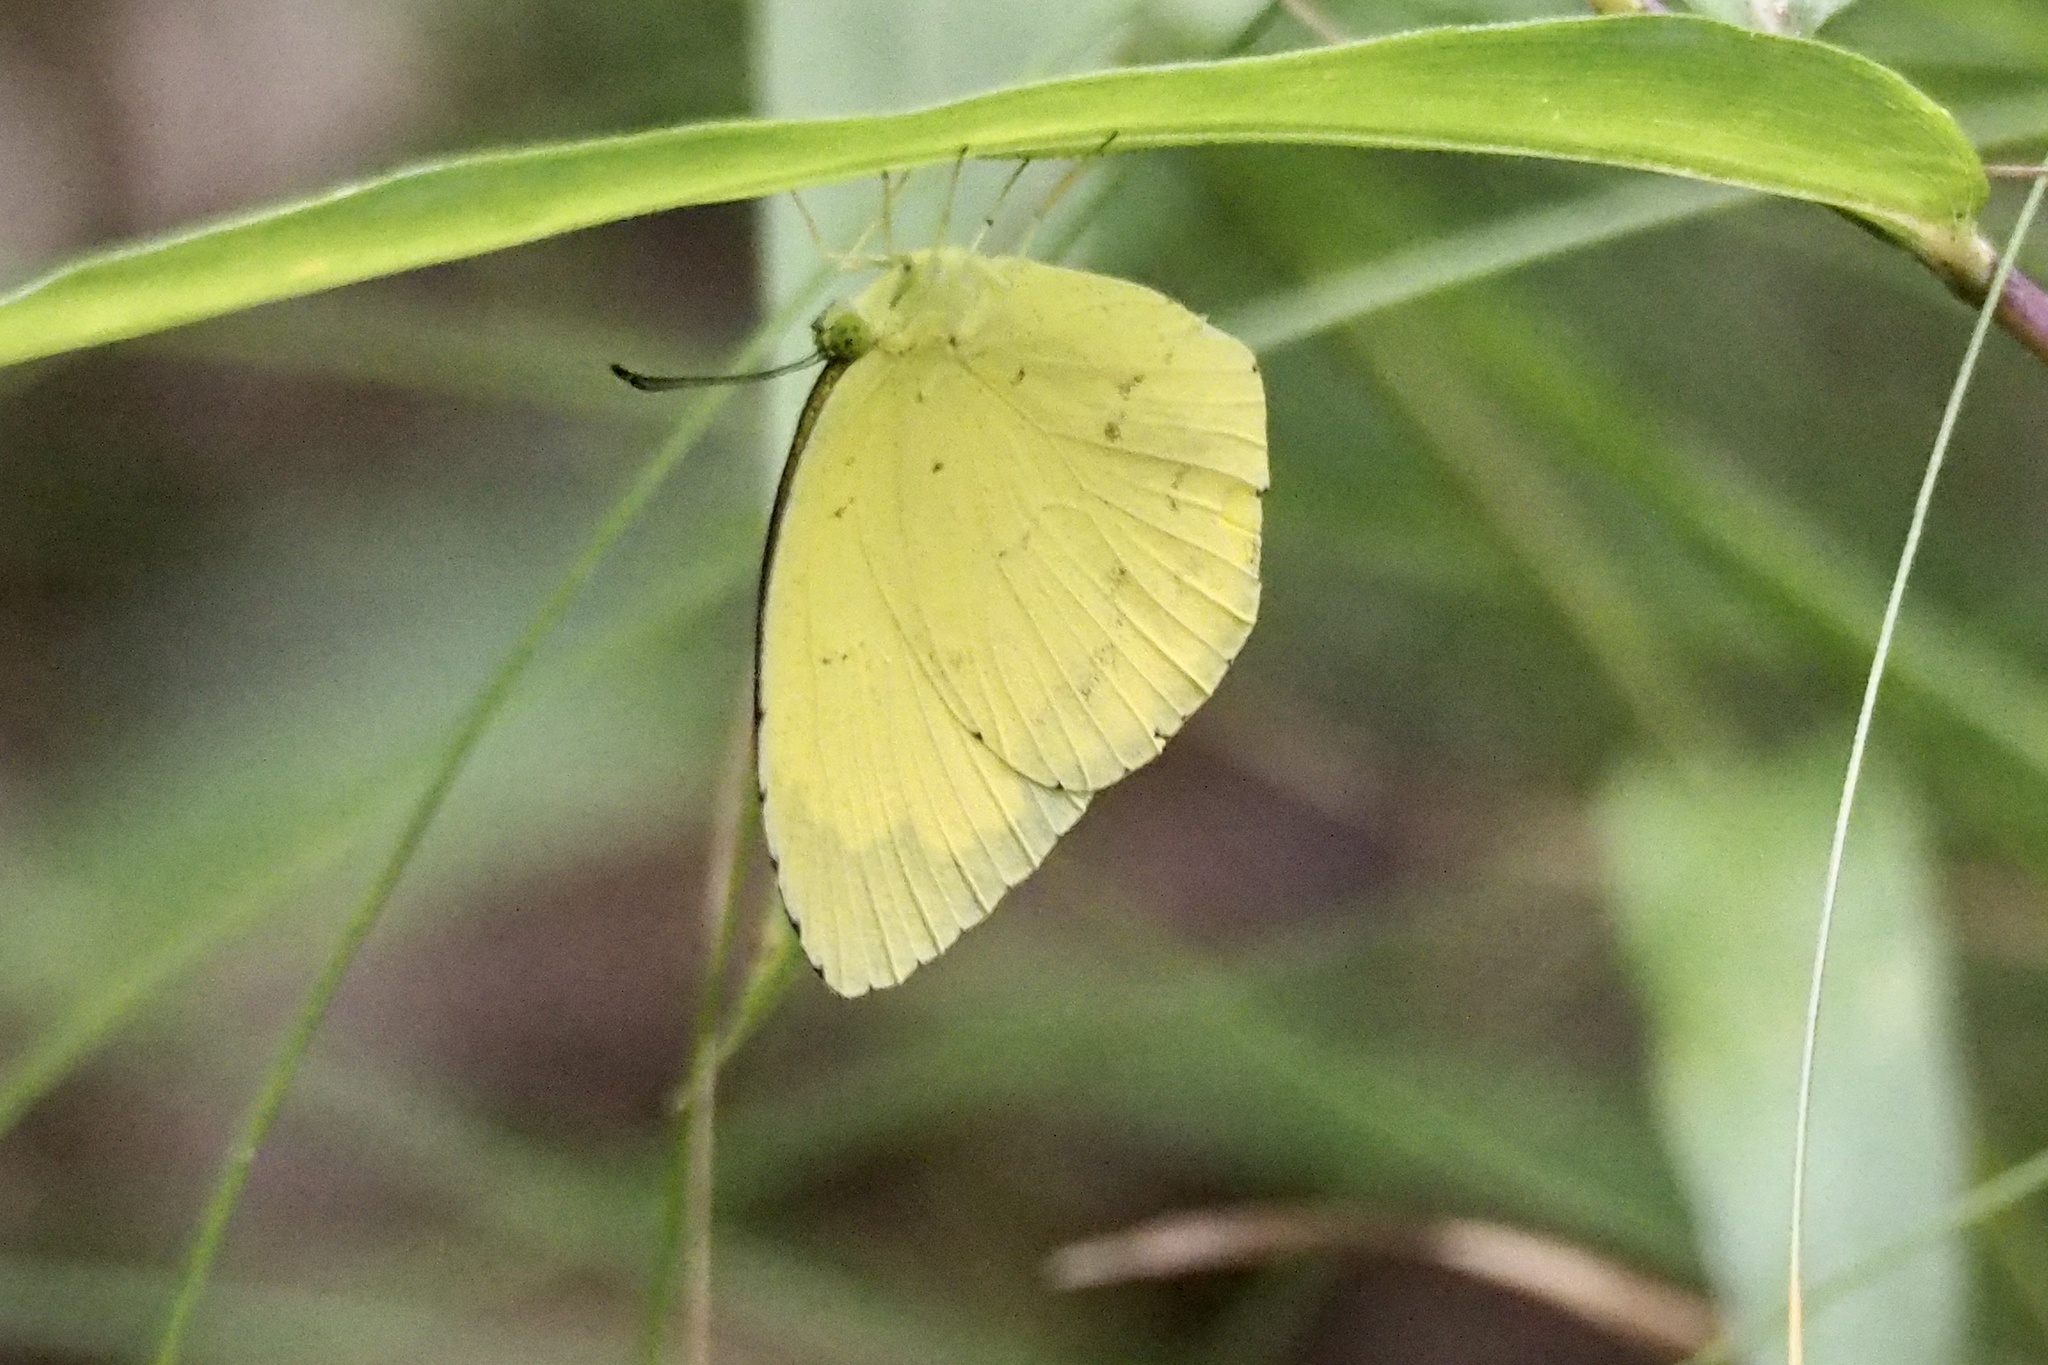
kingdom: Animalia
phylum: Arthropoda
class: Insecta
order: Lepidoptera
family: Pieridae
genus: Eurema
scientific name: Eurema mandarina
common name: Japanese common grass yellow
